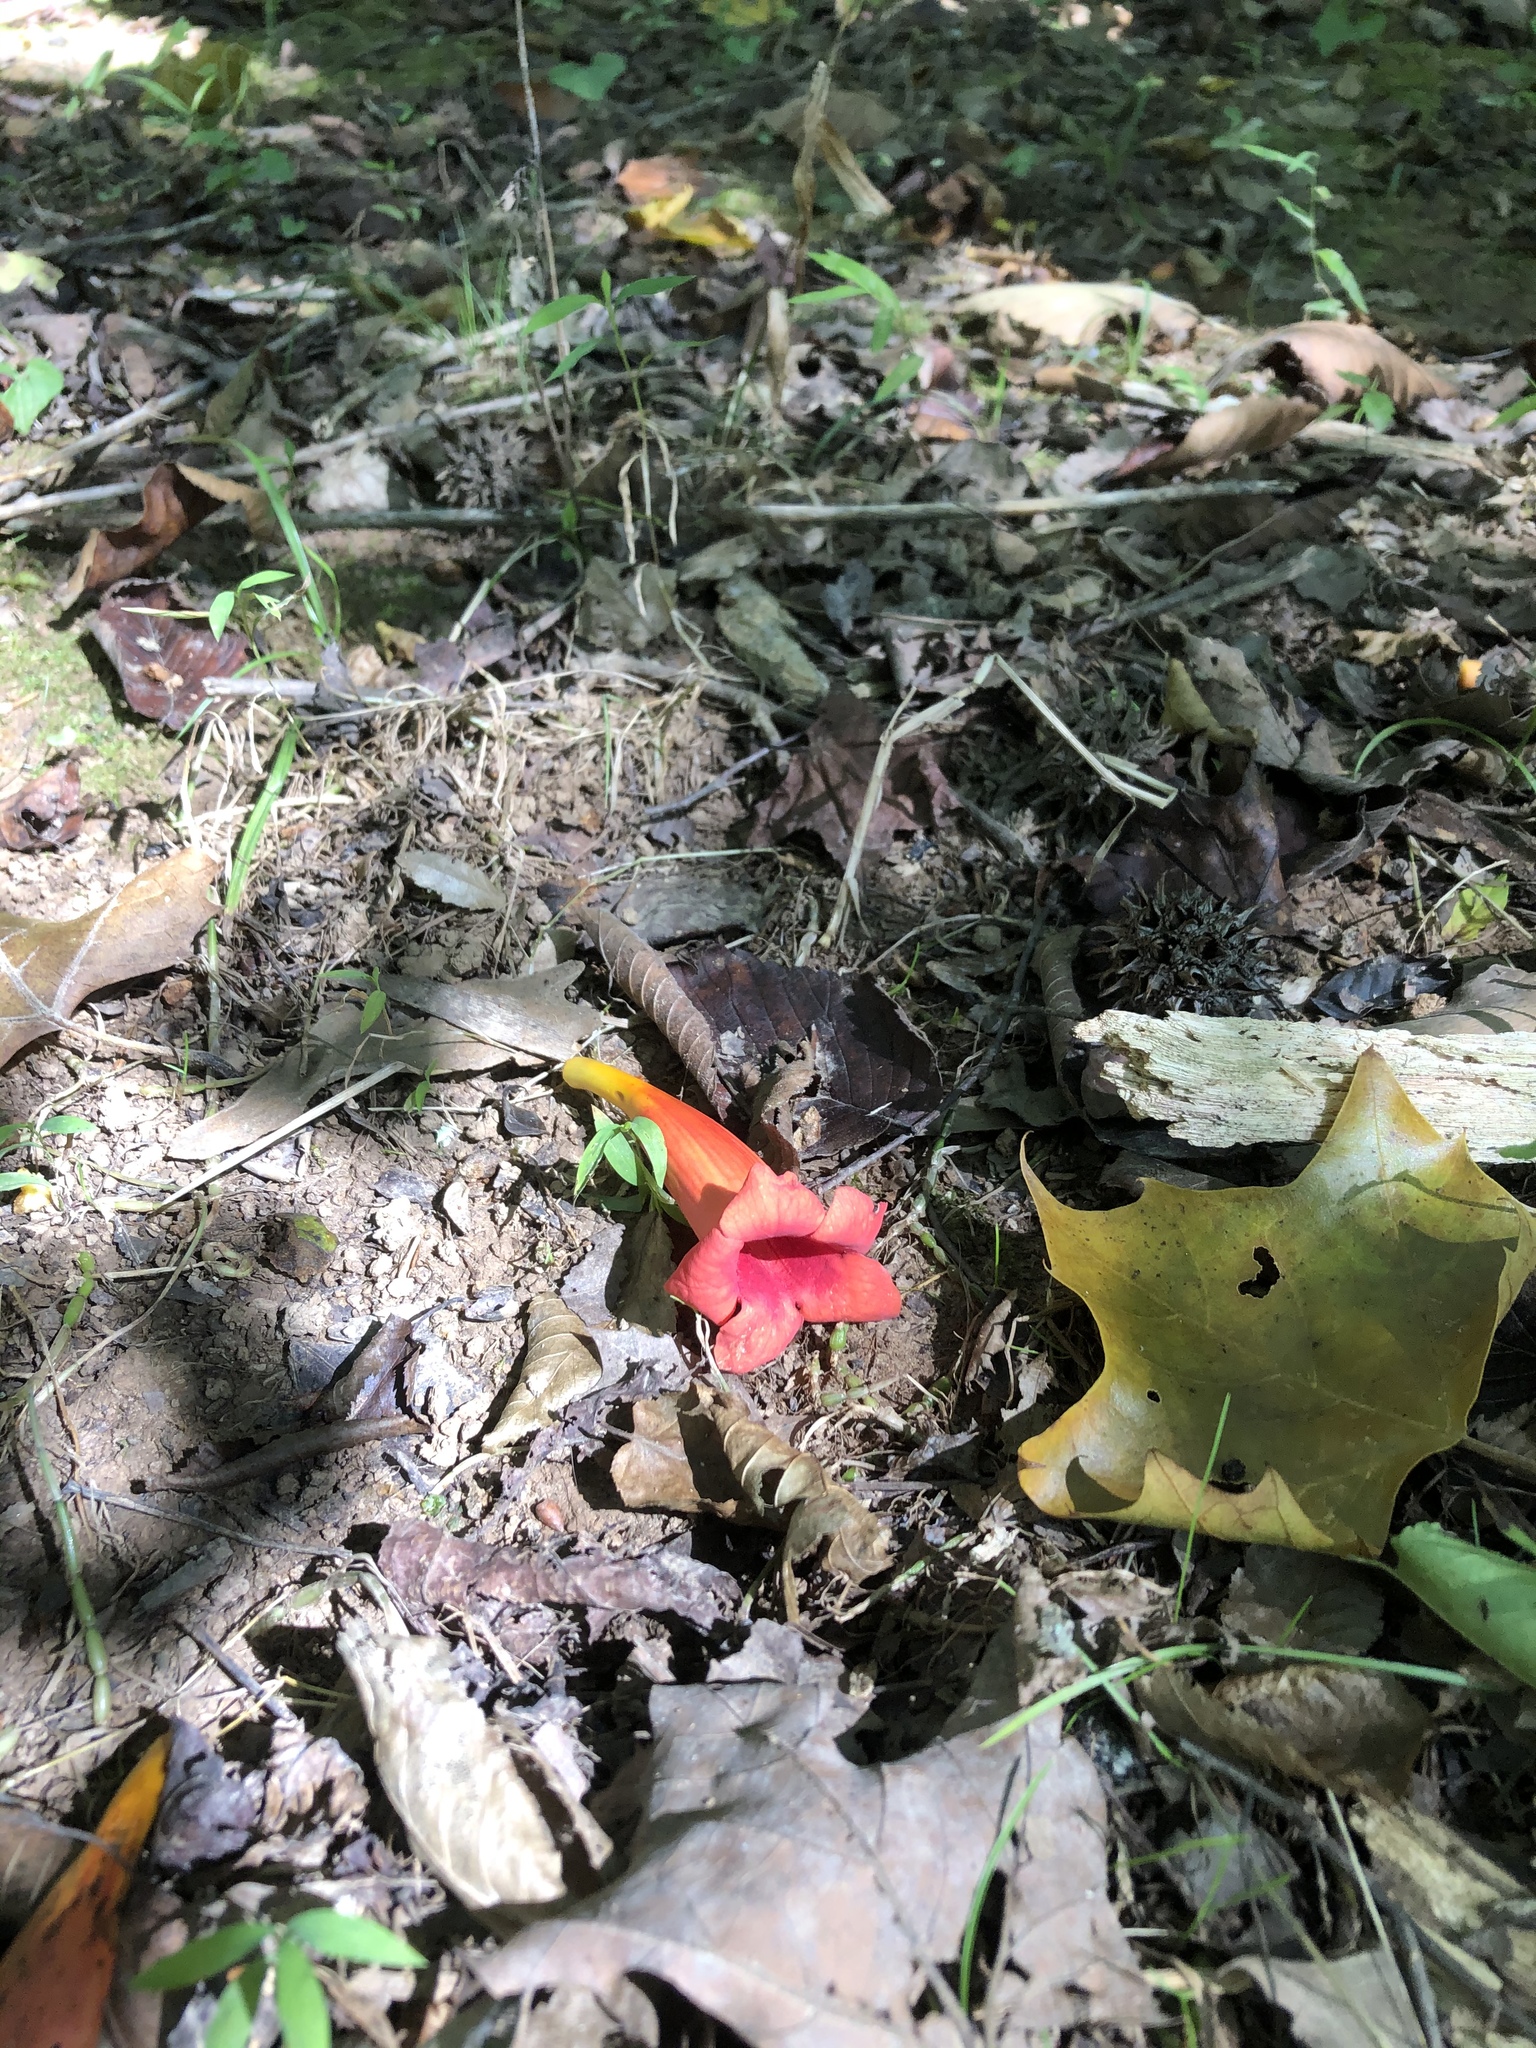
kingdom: Plantae
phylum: Tracheophyta
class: Magnoliopsida
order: Lamiales
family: Bignoniaceae
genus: Campsis
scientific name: Campsis radicans
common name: Trumpet-creeper
